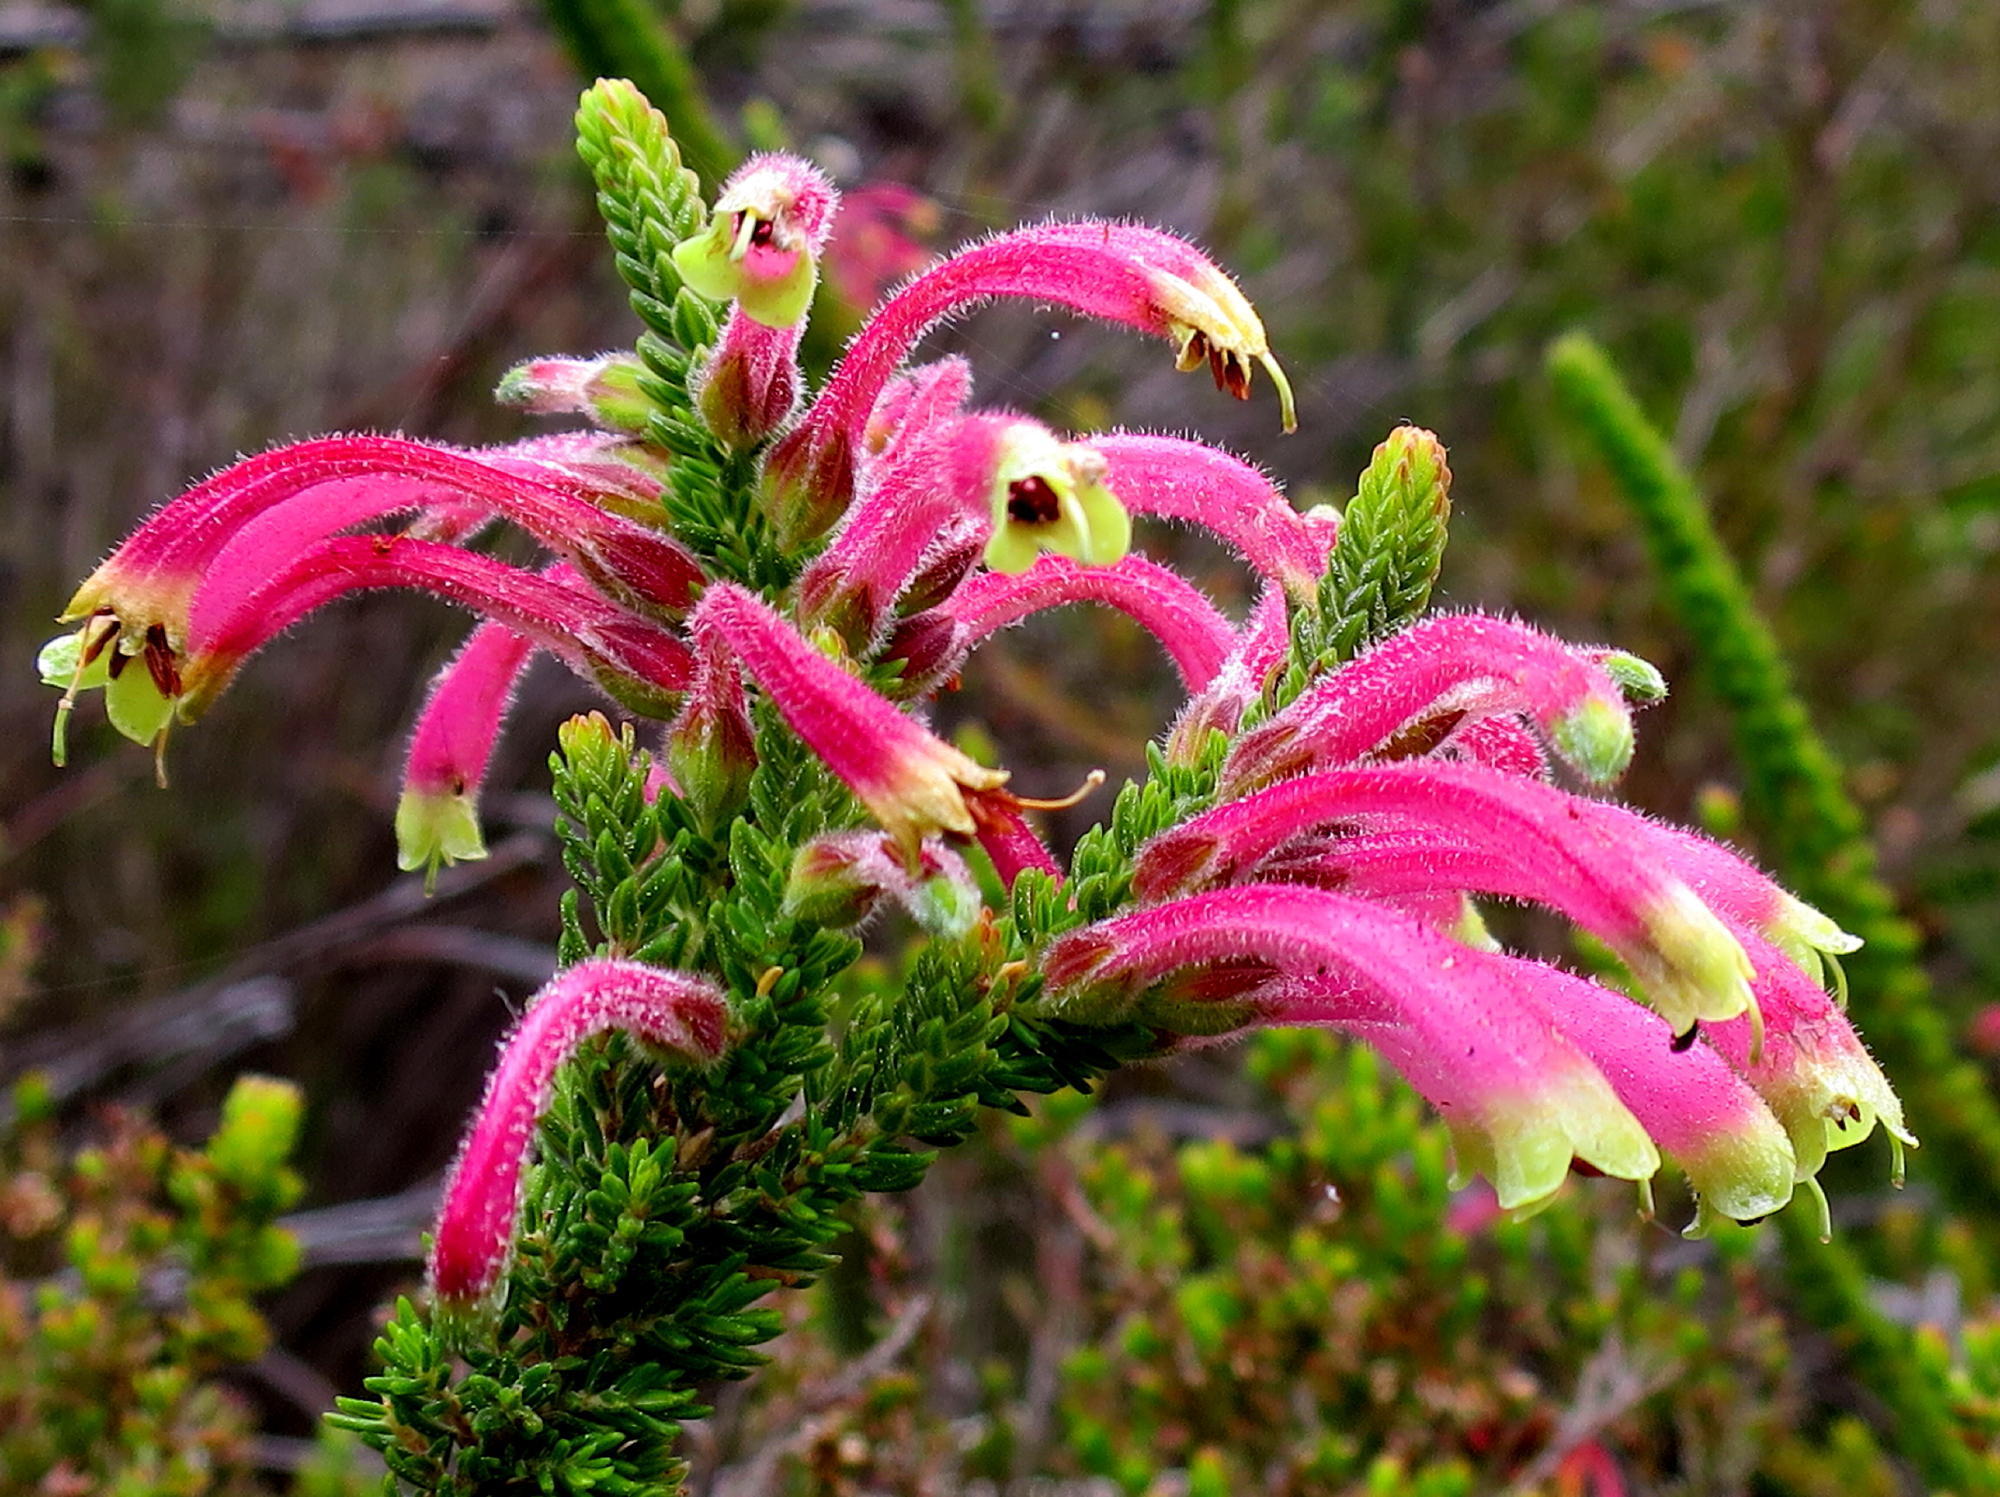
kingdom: Plantae
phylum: Tracheophyta
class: Magnoliopsida
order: Ericales
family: Ericaceae
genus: Erica
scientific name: Erica densifolia
